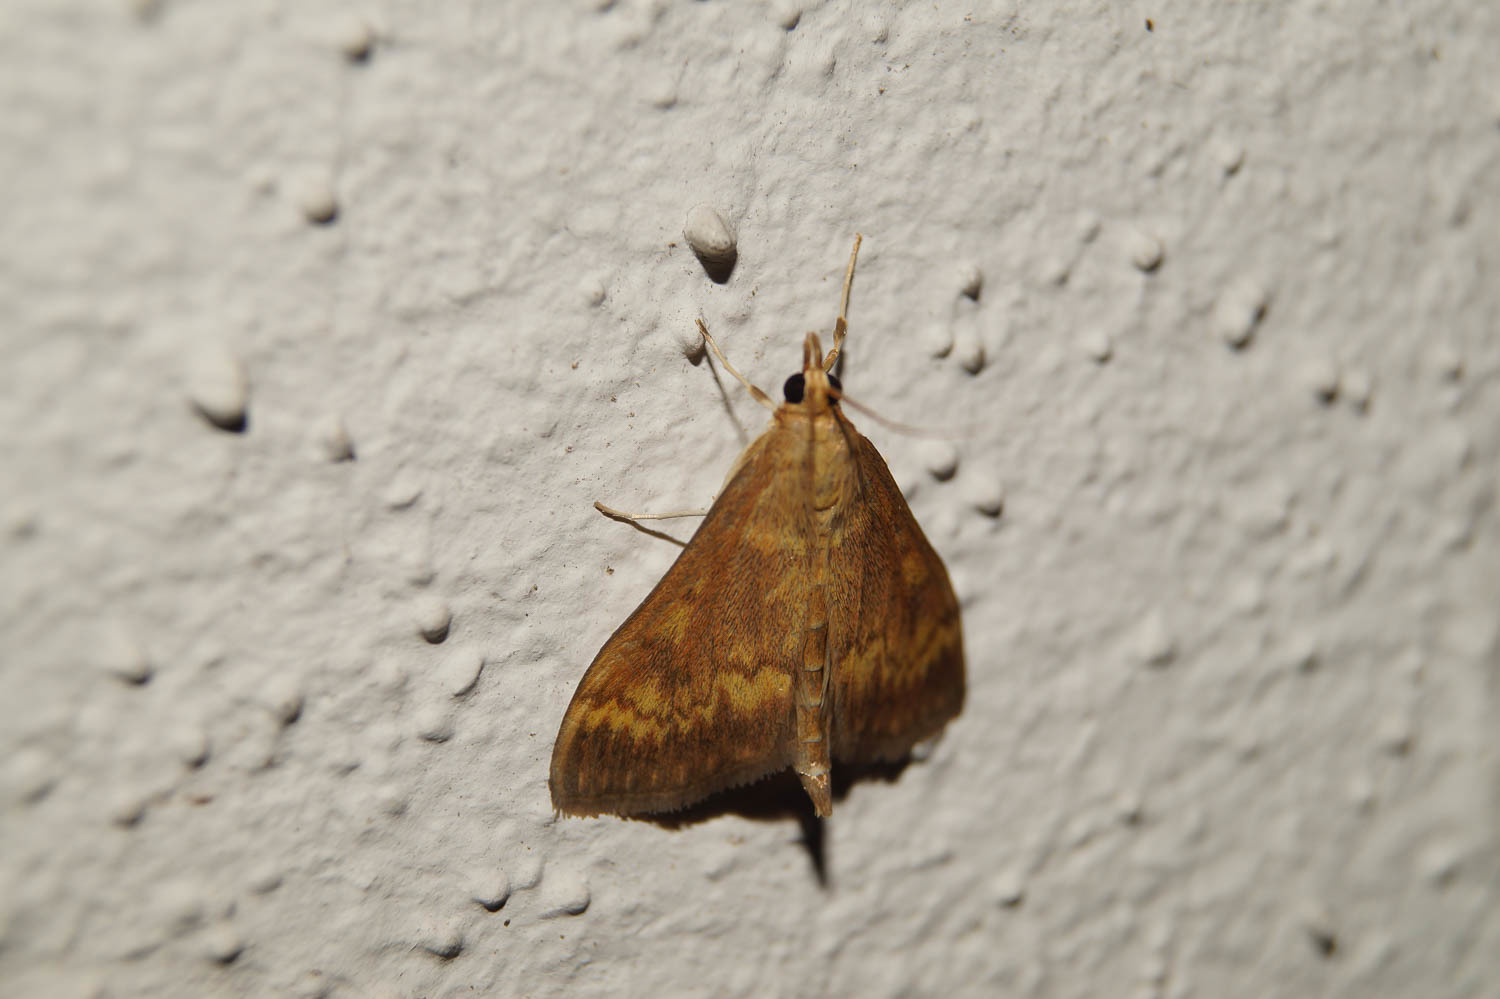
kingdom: Animalia
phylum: Arthropoda
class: Insecta
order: Lepidoptera
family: Crambidae
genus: Ostrinia
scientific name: Ostrinia nubilalis
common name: European corn borer
